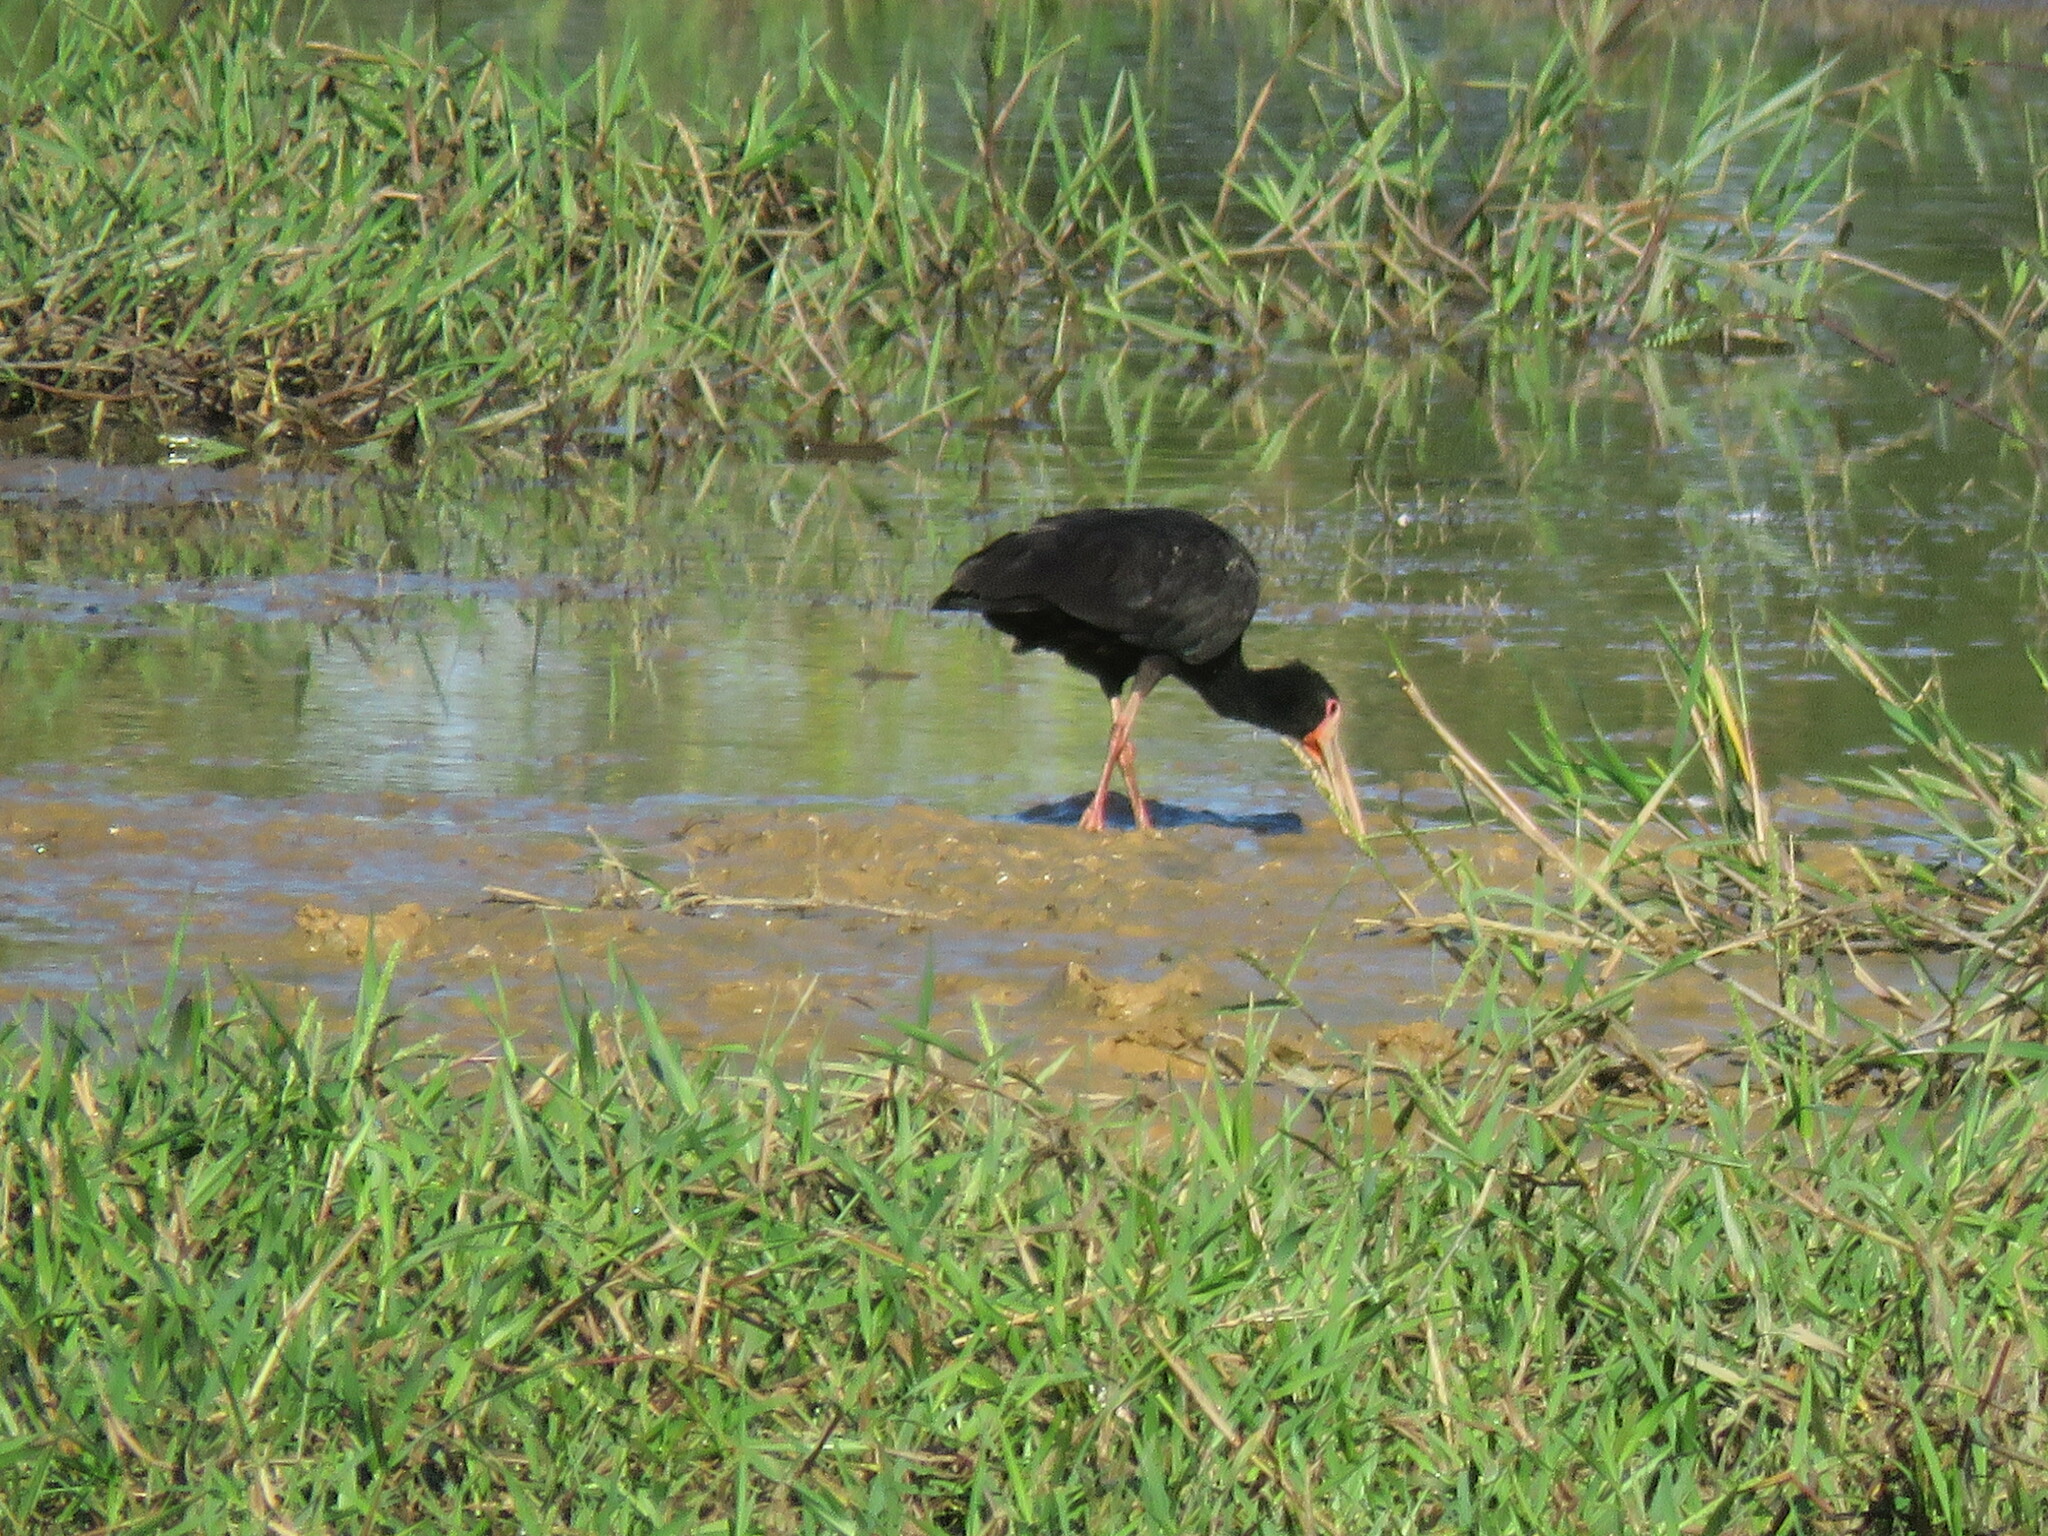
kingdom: Animalia
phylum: Chordata
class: Aves
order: Pelecaniformes
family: Threskiornithidae
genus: Phimosus
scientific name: Phimosus infuscatus
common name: Bare-faced ibis
